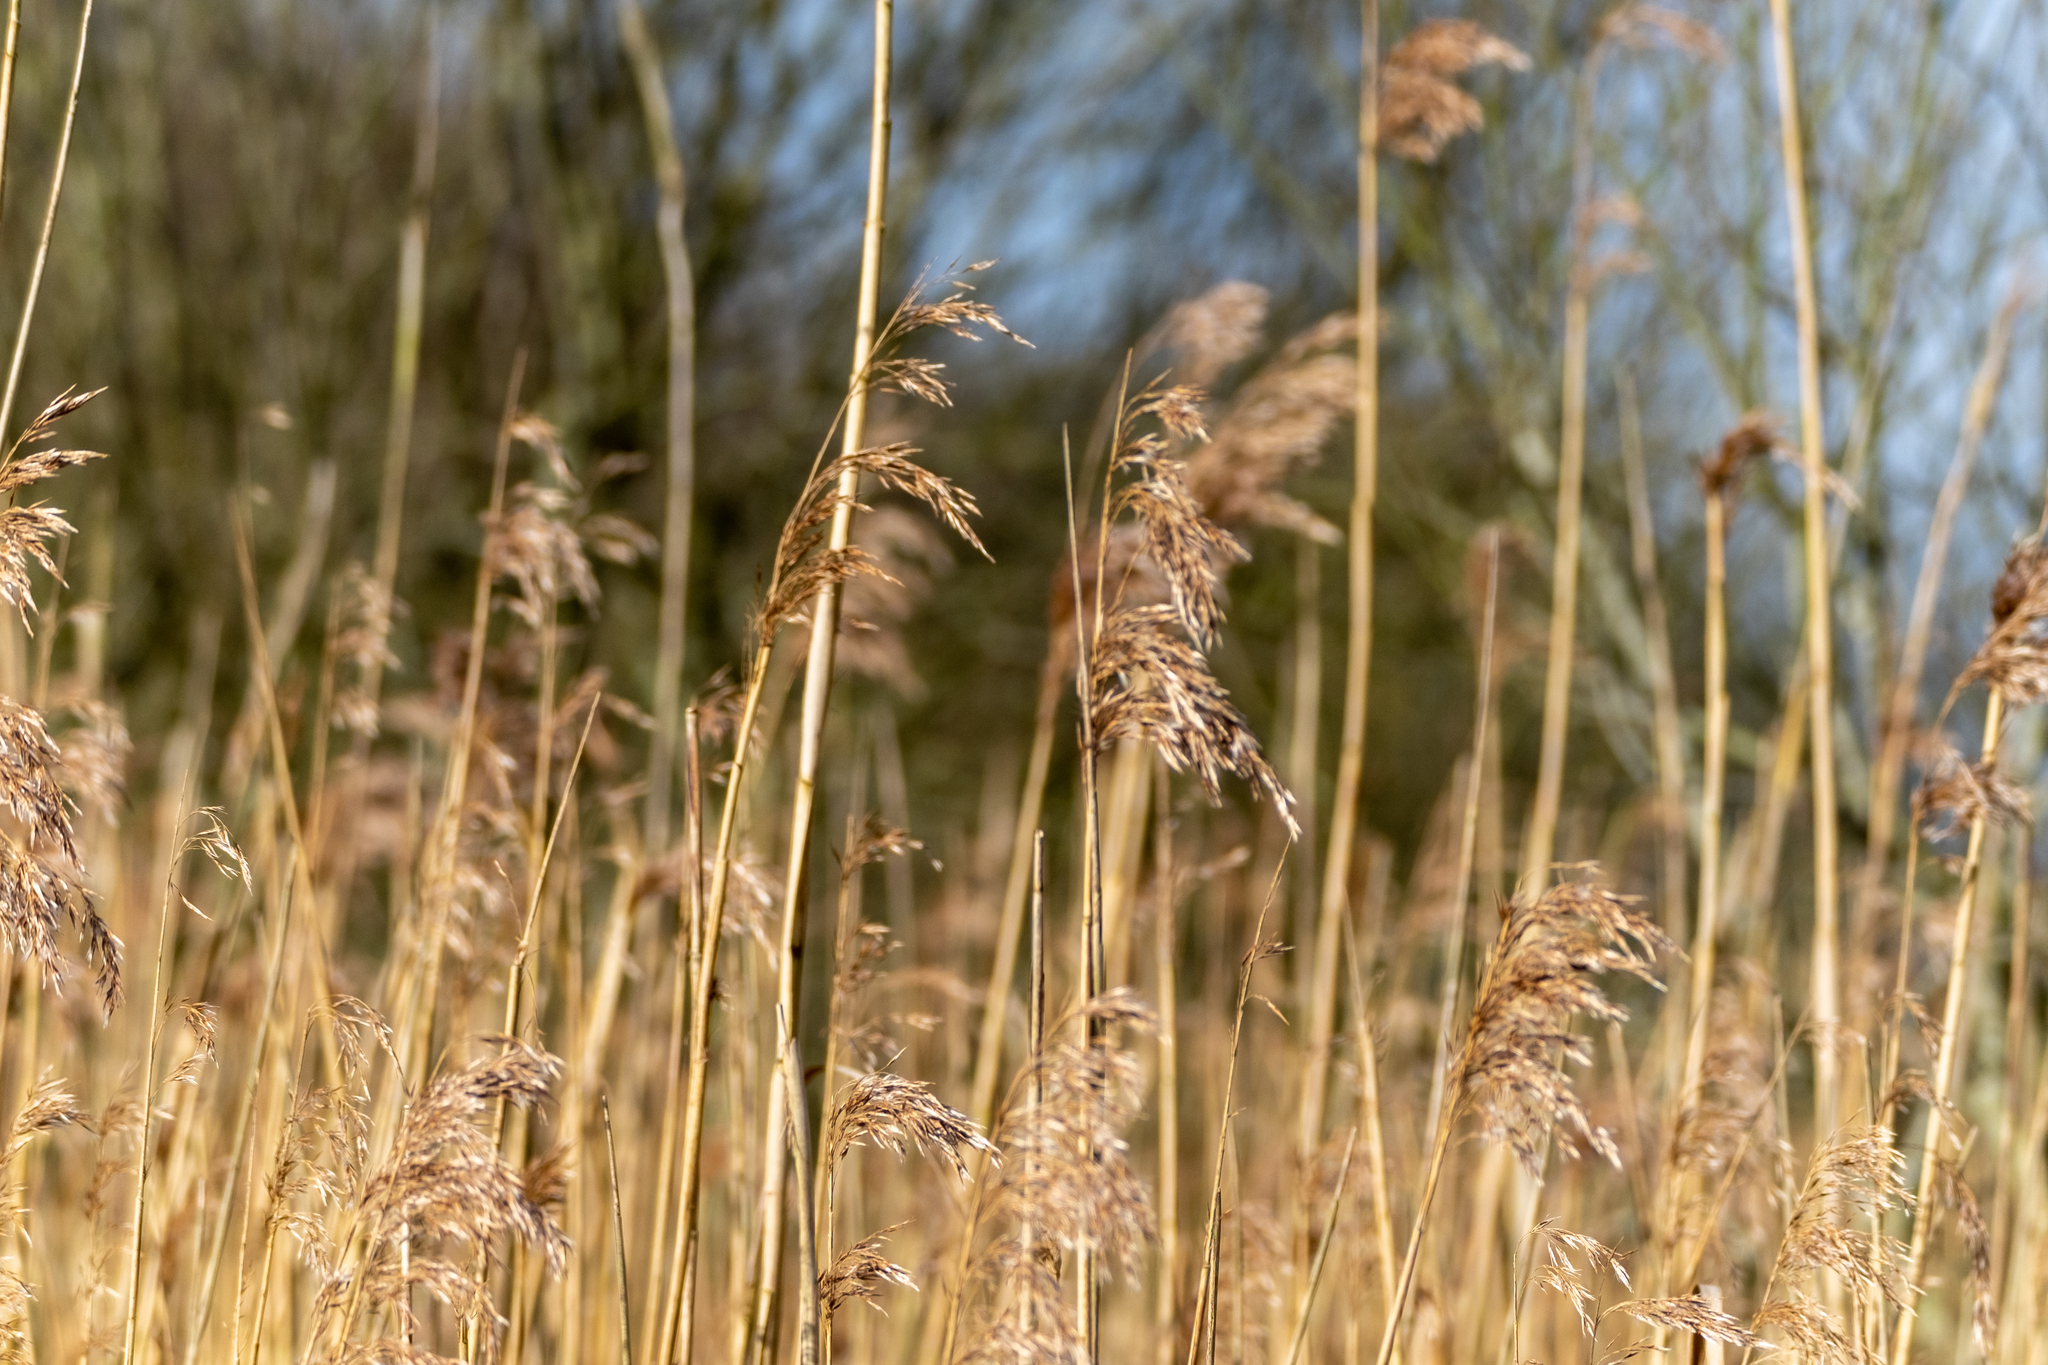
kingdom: Plantae
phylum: Tracheophyta
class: Liliopsida
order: Poales
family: Poaceae
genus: Phragmites
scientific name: Phragmites australis
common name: Common reed
